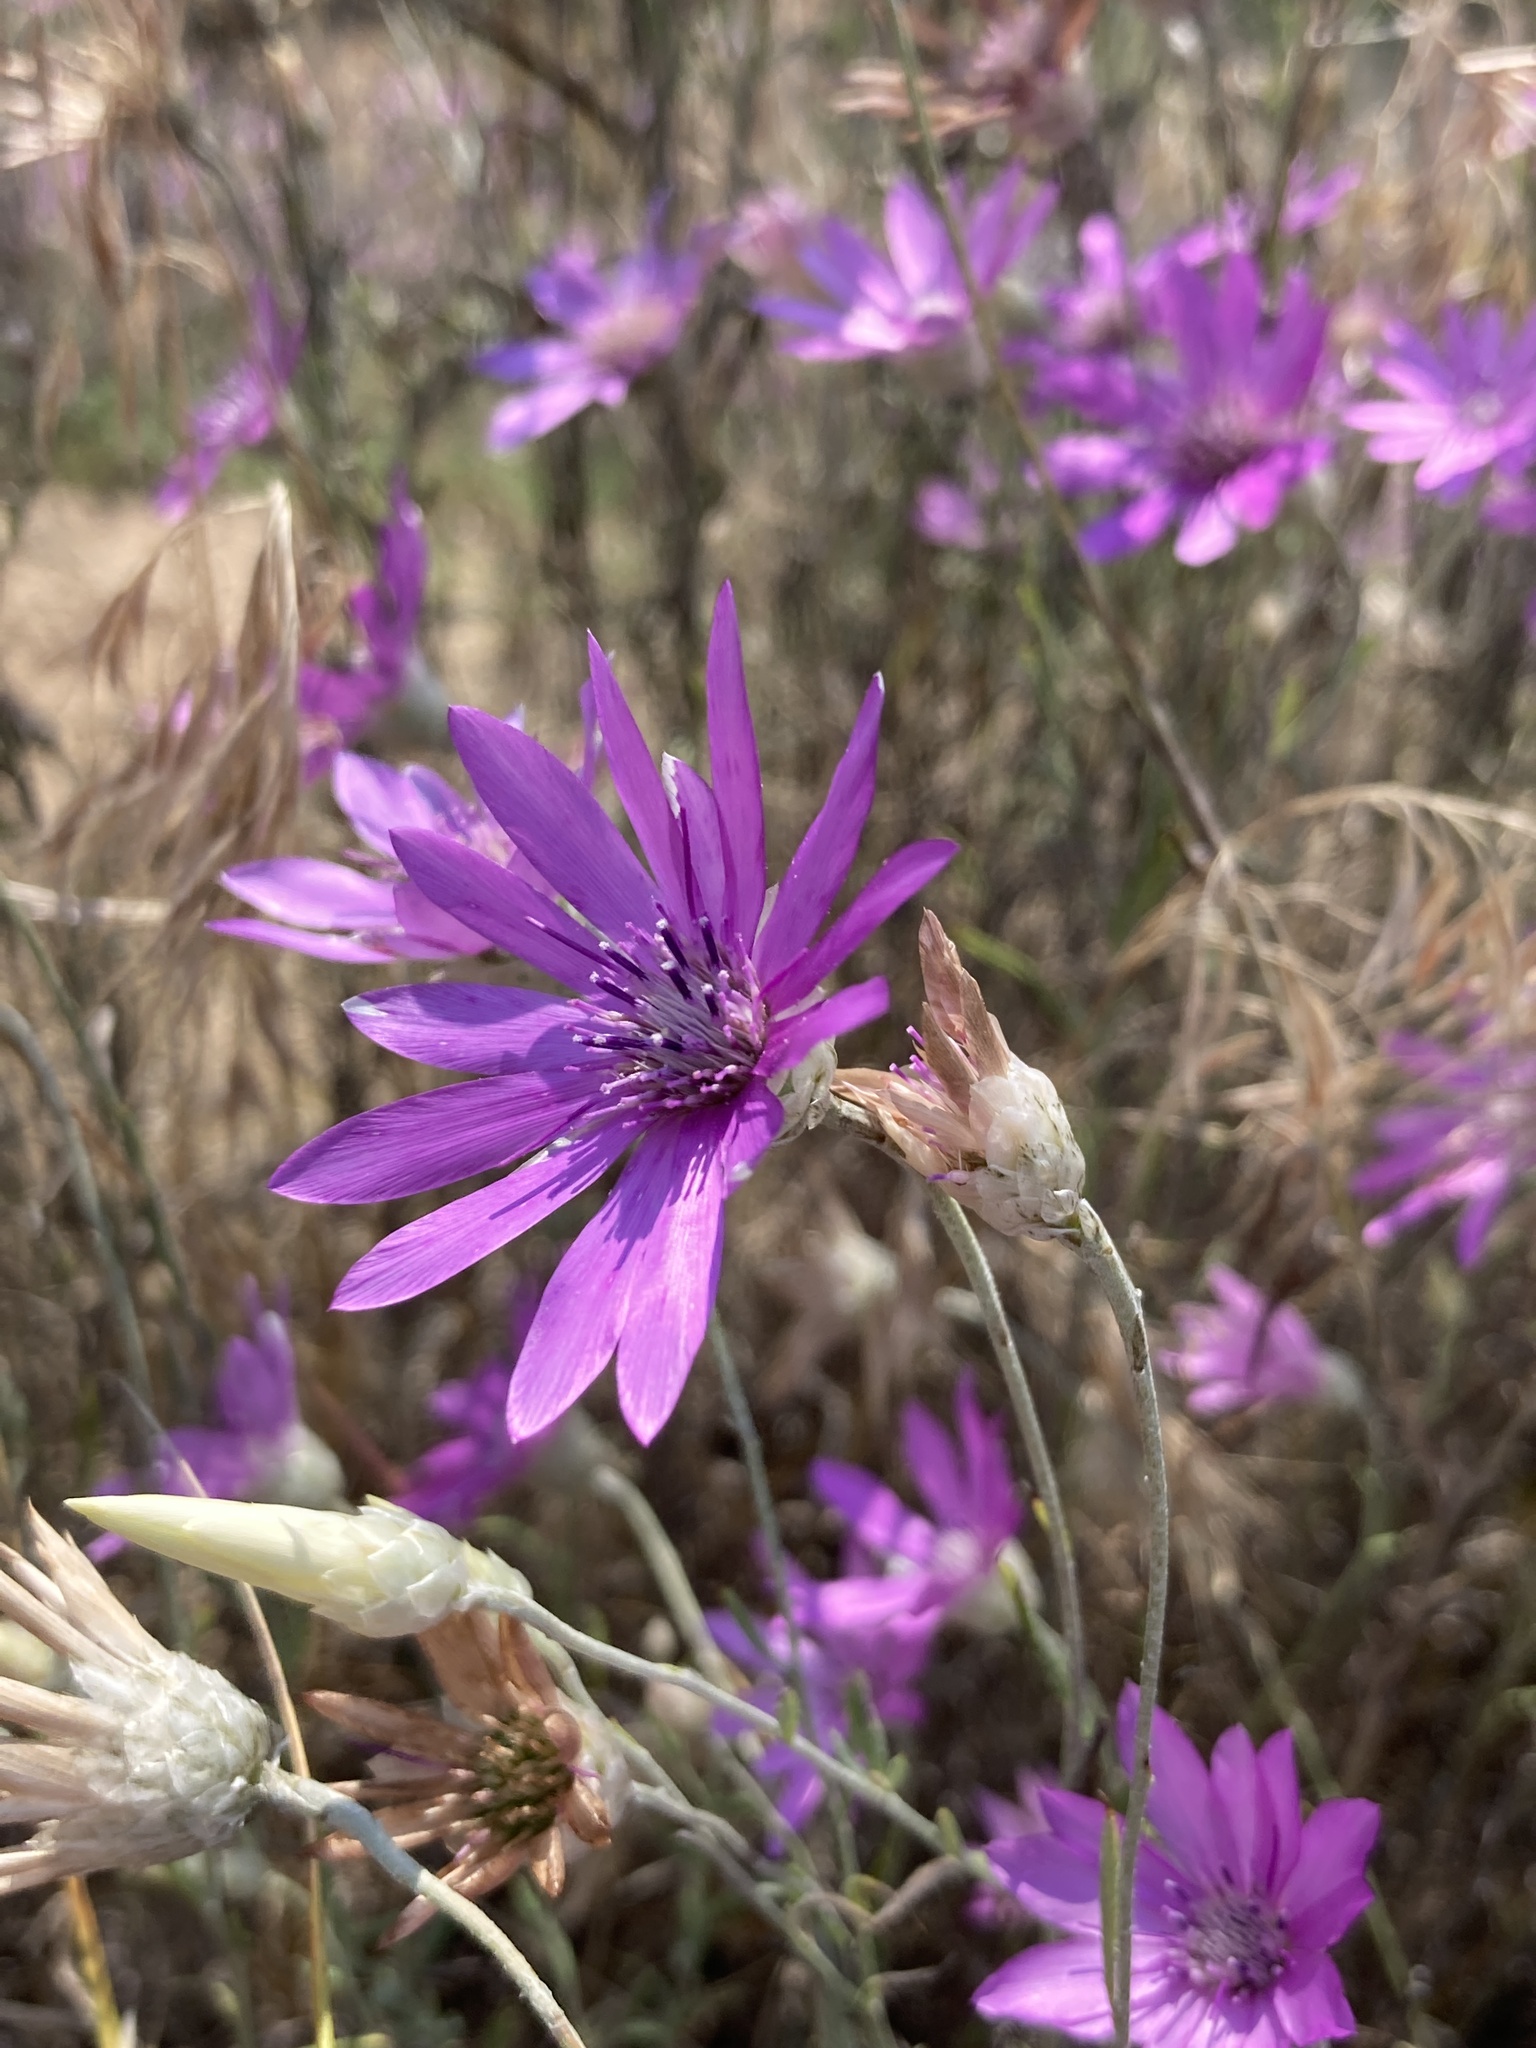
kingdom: Plantae
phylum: Tracheophyta
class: Magnoliopsida
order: Asterales
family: Asteraceae
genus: Xeranthemum
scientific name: Xeranthemum annuum
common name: Immortelle
